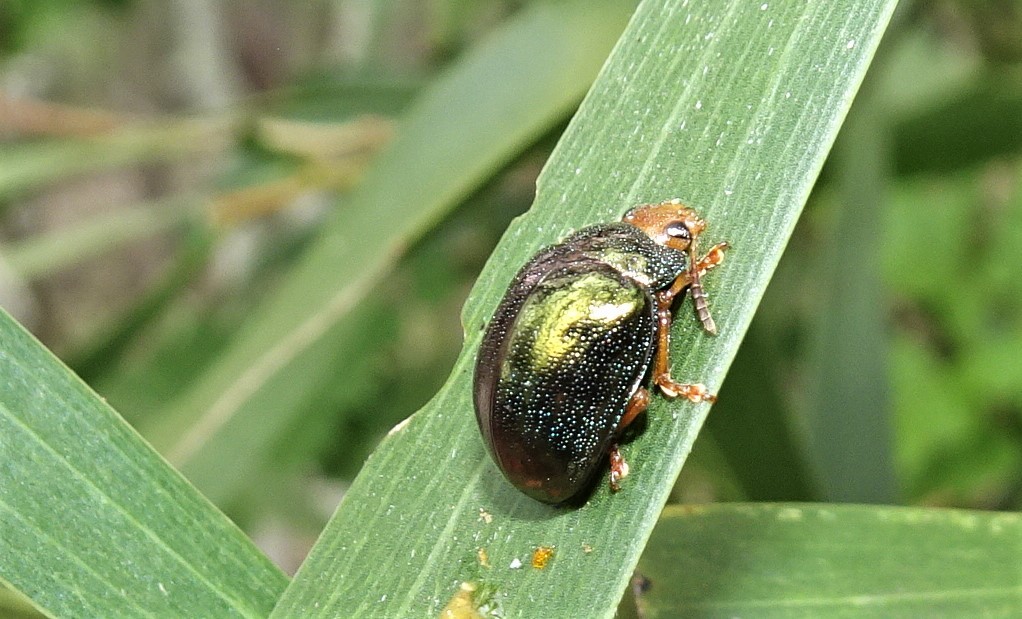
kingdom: Animalia
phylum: Arthropoda
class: Insecta
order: Coleoptera
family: Chrysomelidae
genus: Calomela
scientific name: Calomela
